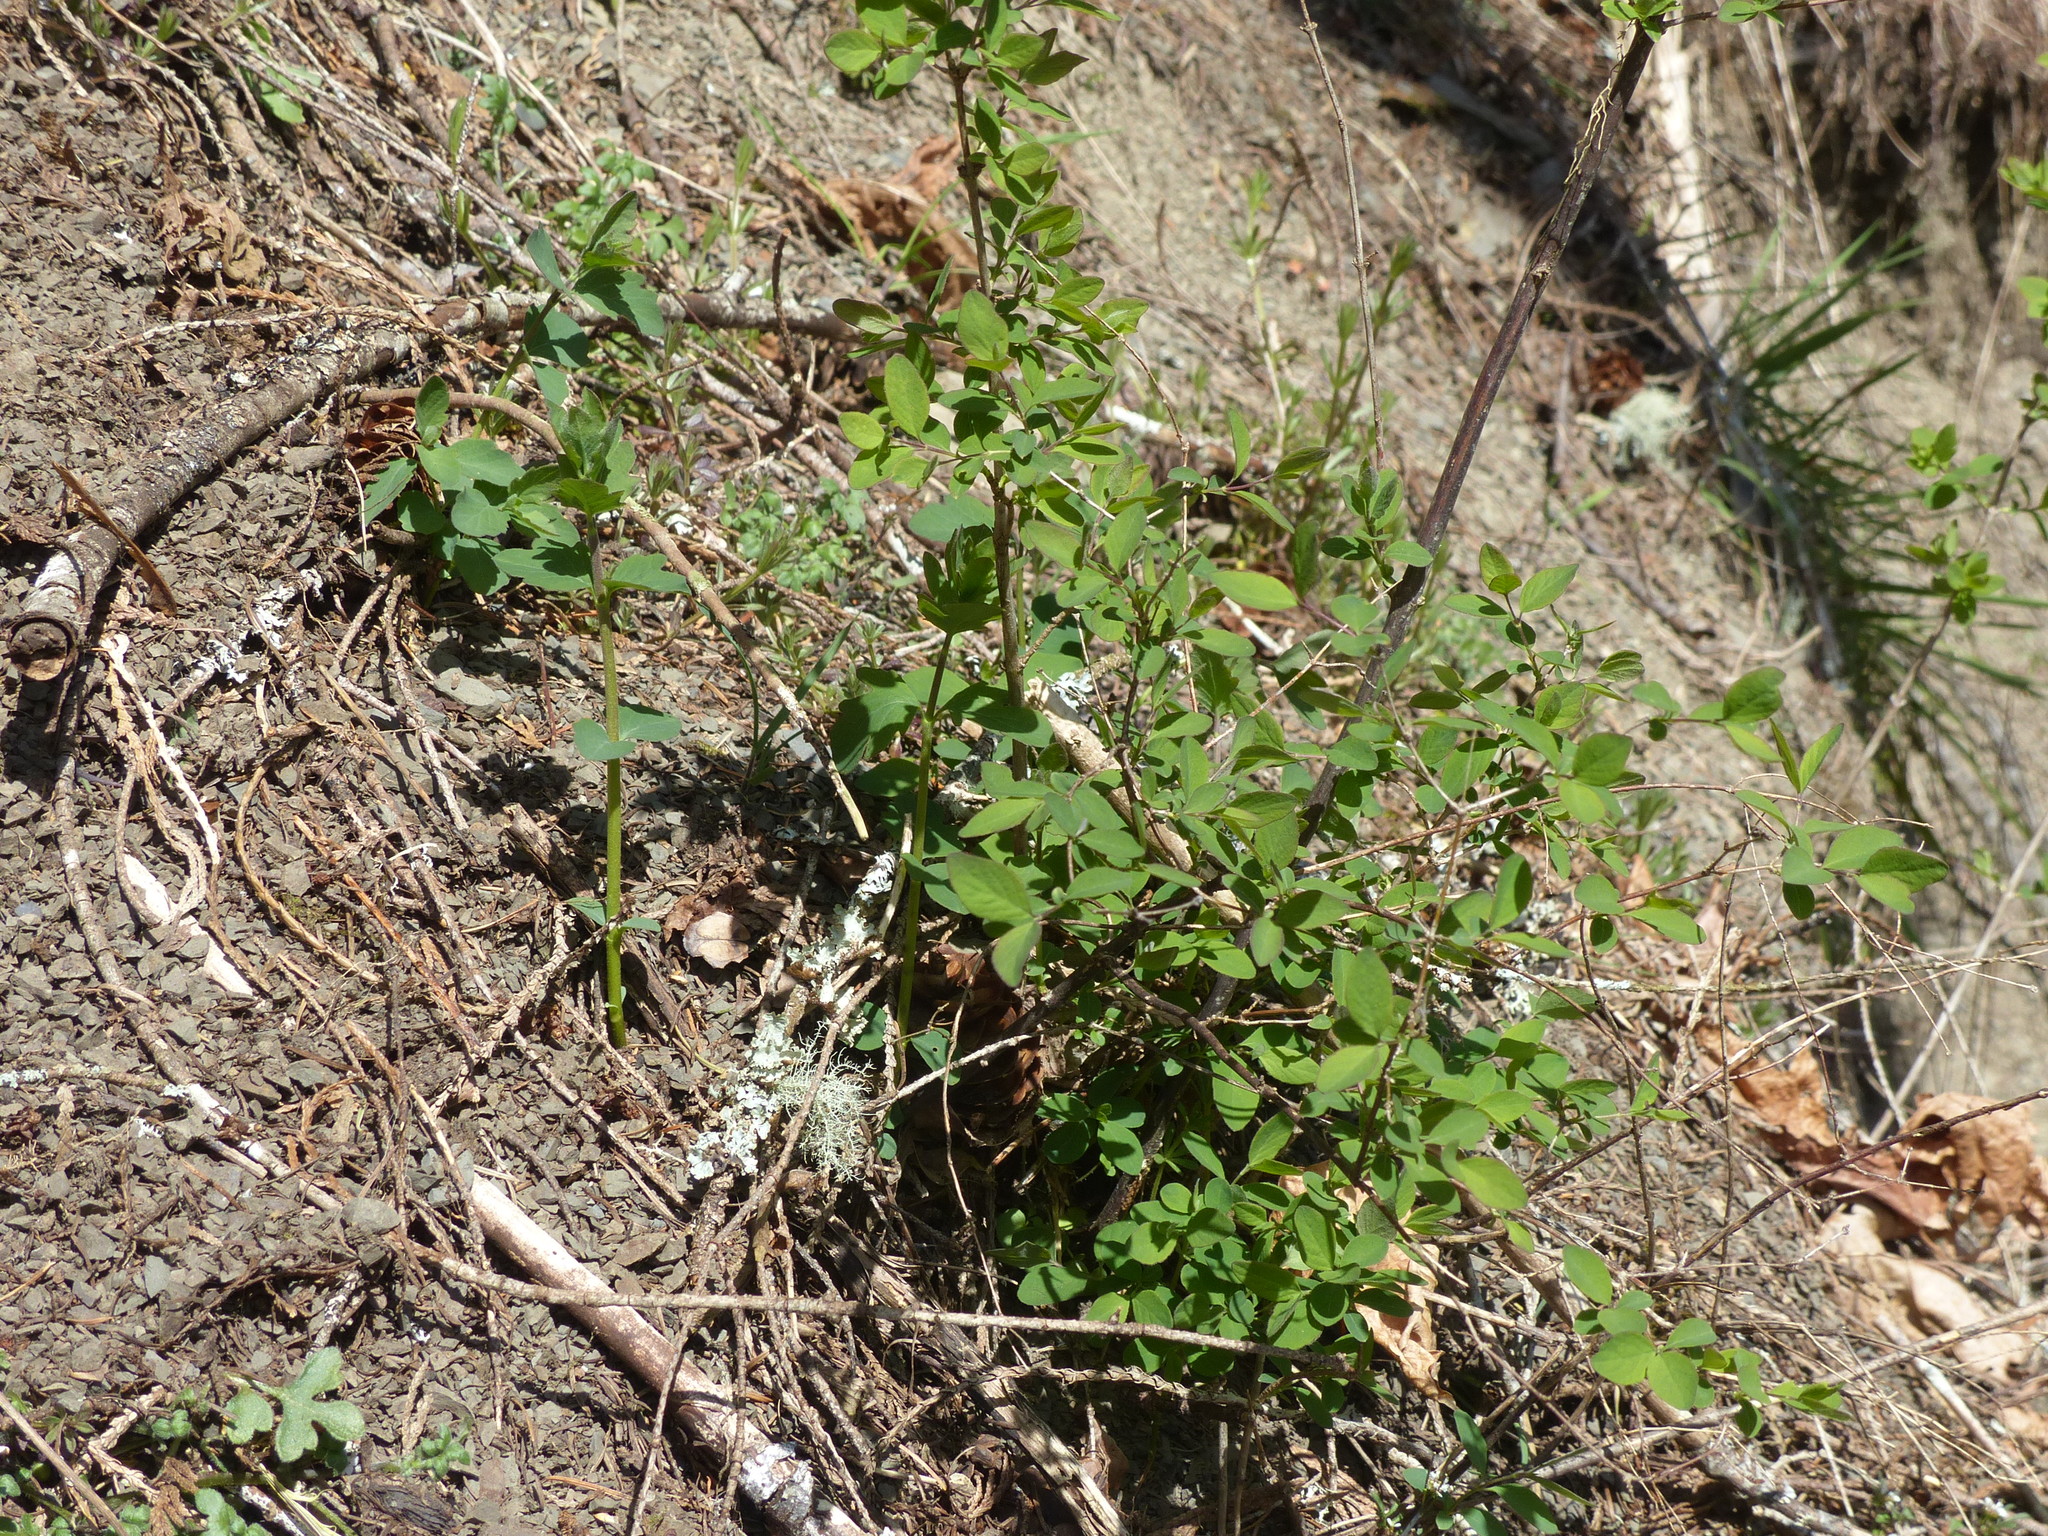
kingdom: Plantae
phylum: Tracheophyta
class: Magnoliopsida
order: Dipsacales
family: Caprifoliaceae
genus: Symphoricarpos
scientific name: Symphoricarpos albus
